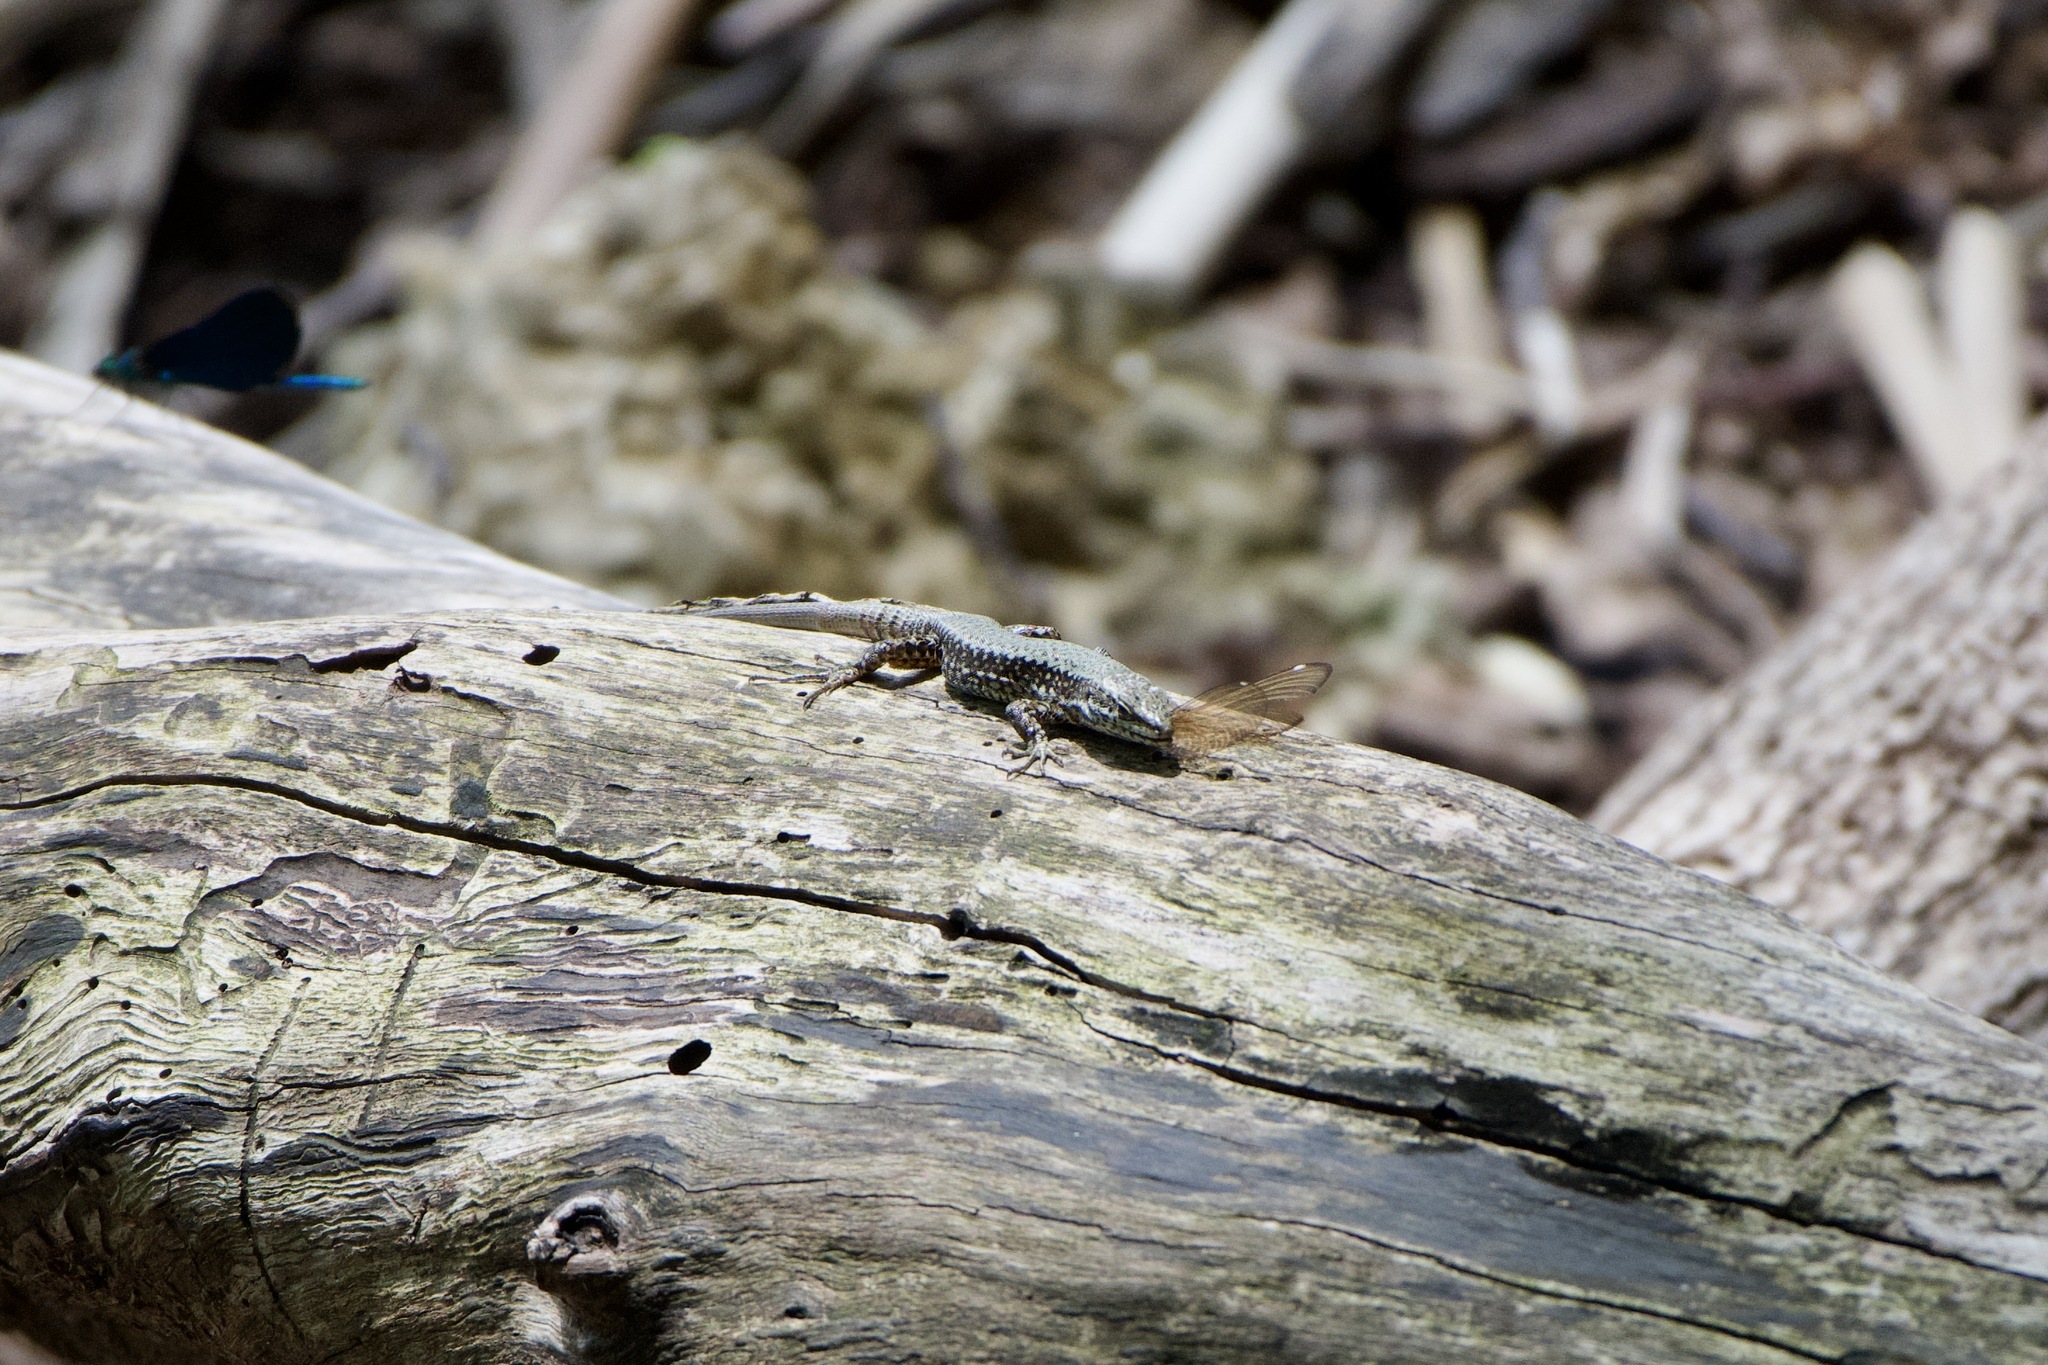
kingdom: Animalia
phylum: Chordata
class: Squamata
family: Lacertidae
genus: Podarcis
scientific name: Podarcis muralis
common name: Common wall lizard
